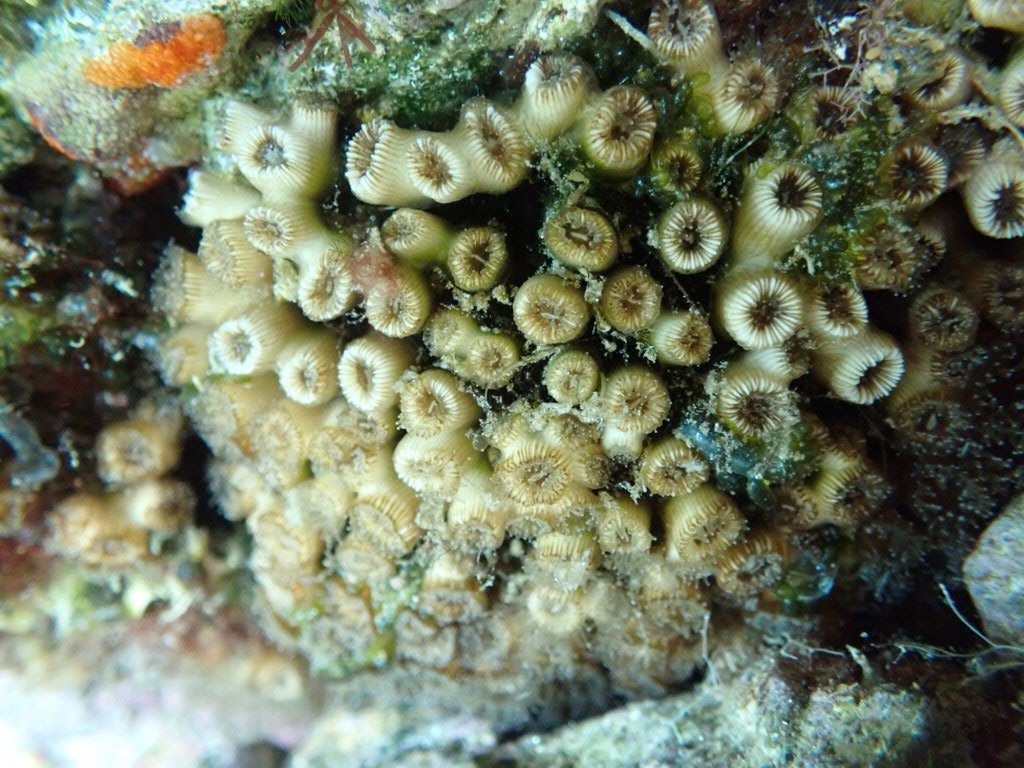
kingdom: Animalia
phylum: Cnidaria
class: Anthozoa
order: Scleractinia
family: Cladocoridae
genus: Cladocora
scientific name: Cladocora caespitosa
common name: Cladocora
